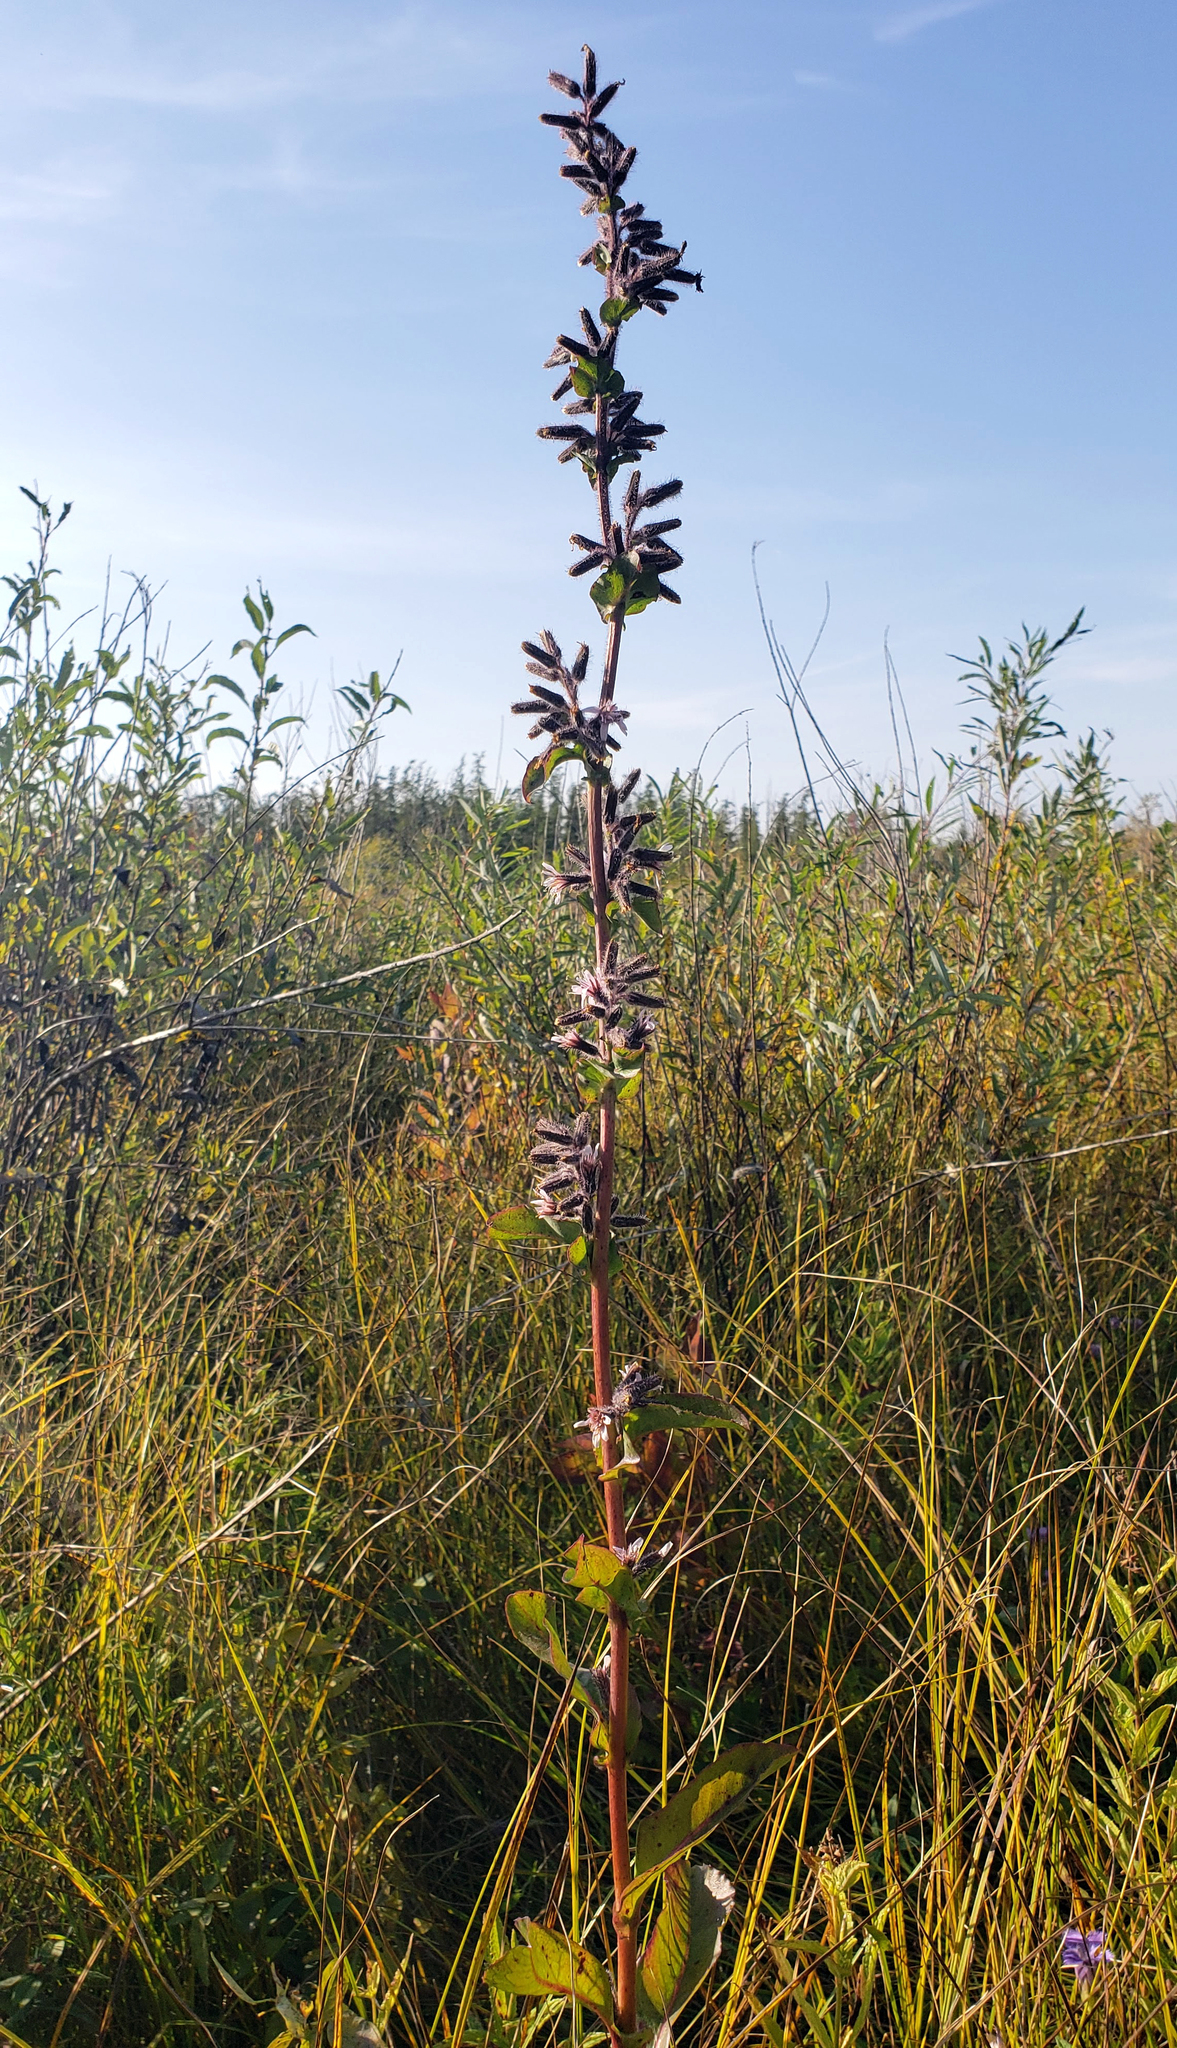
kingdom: Plantae
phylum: Tracheophyta
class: Magnoliopsida
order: Asterales
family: Asteraceae
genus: Nabalus
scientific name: Nabalus racemosus
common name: Glaucous white lettuce
